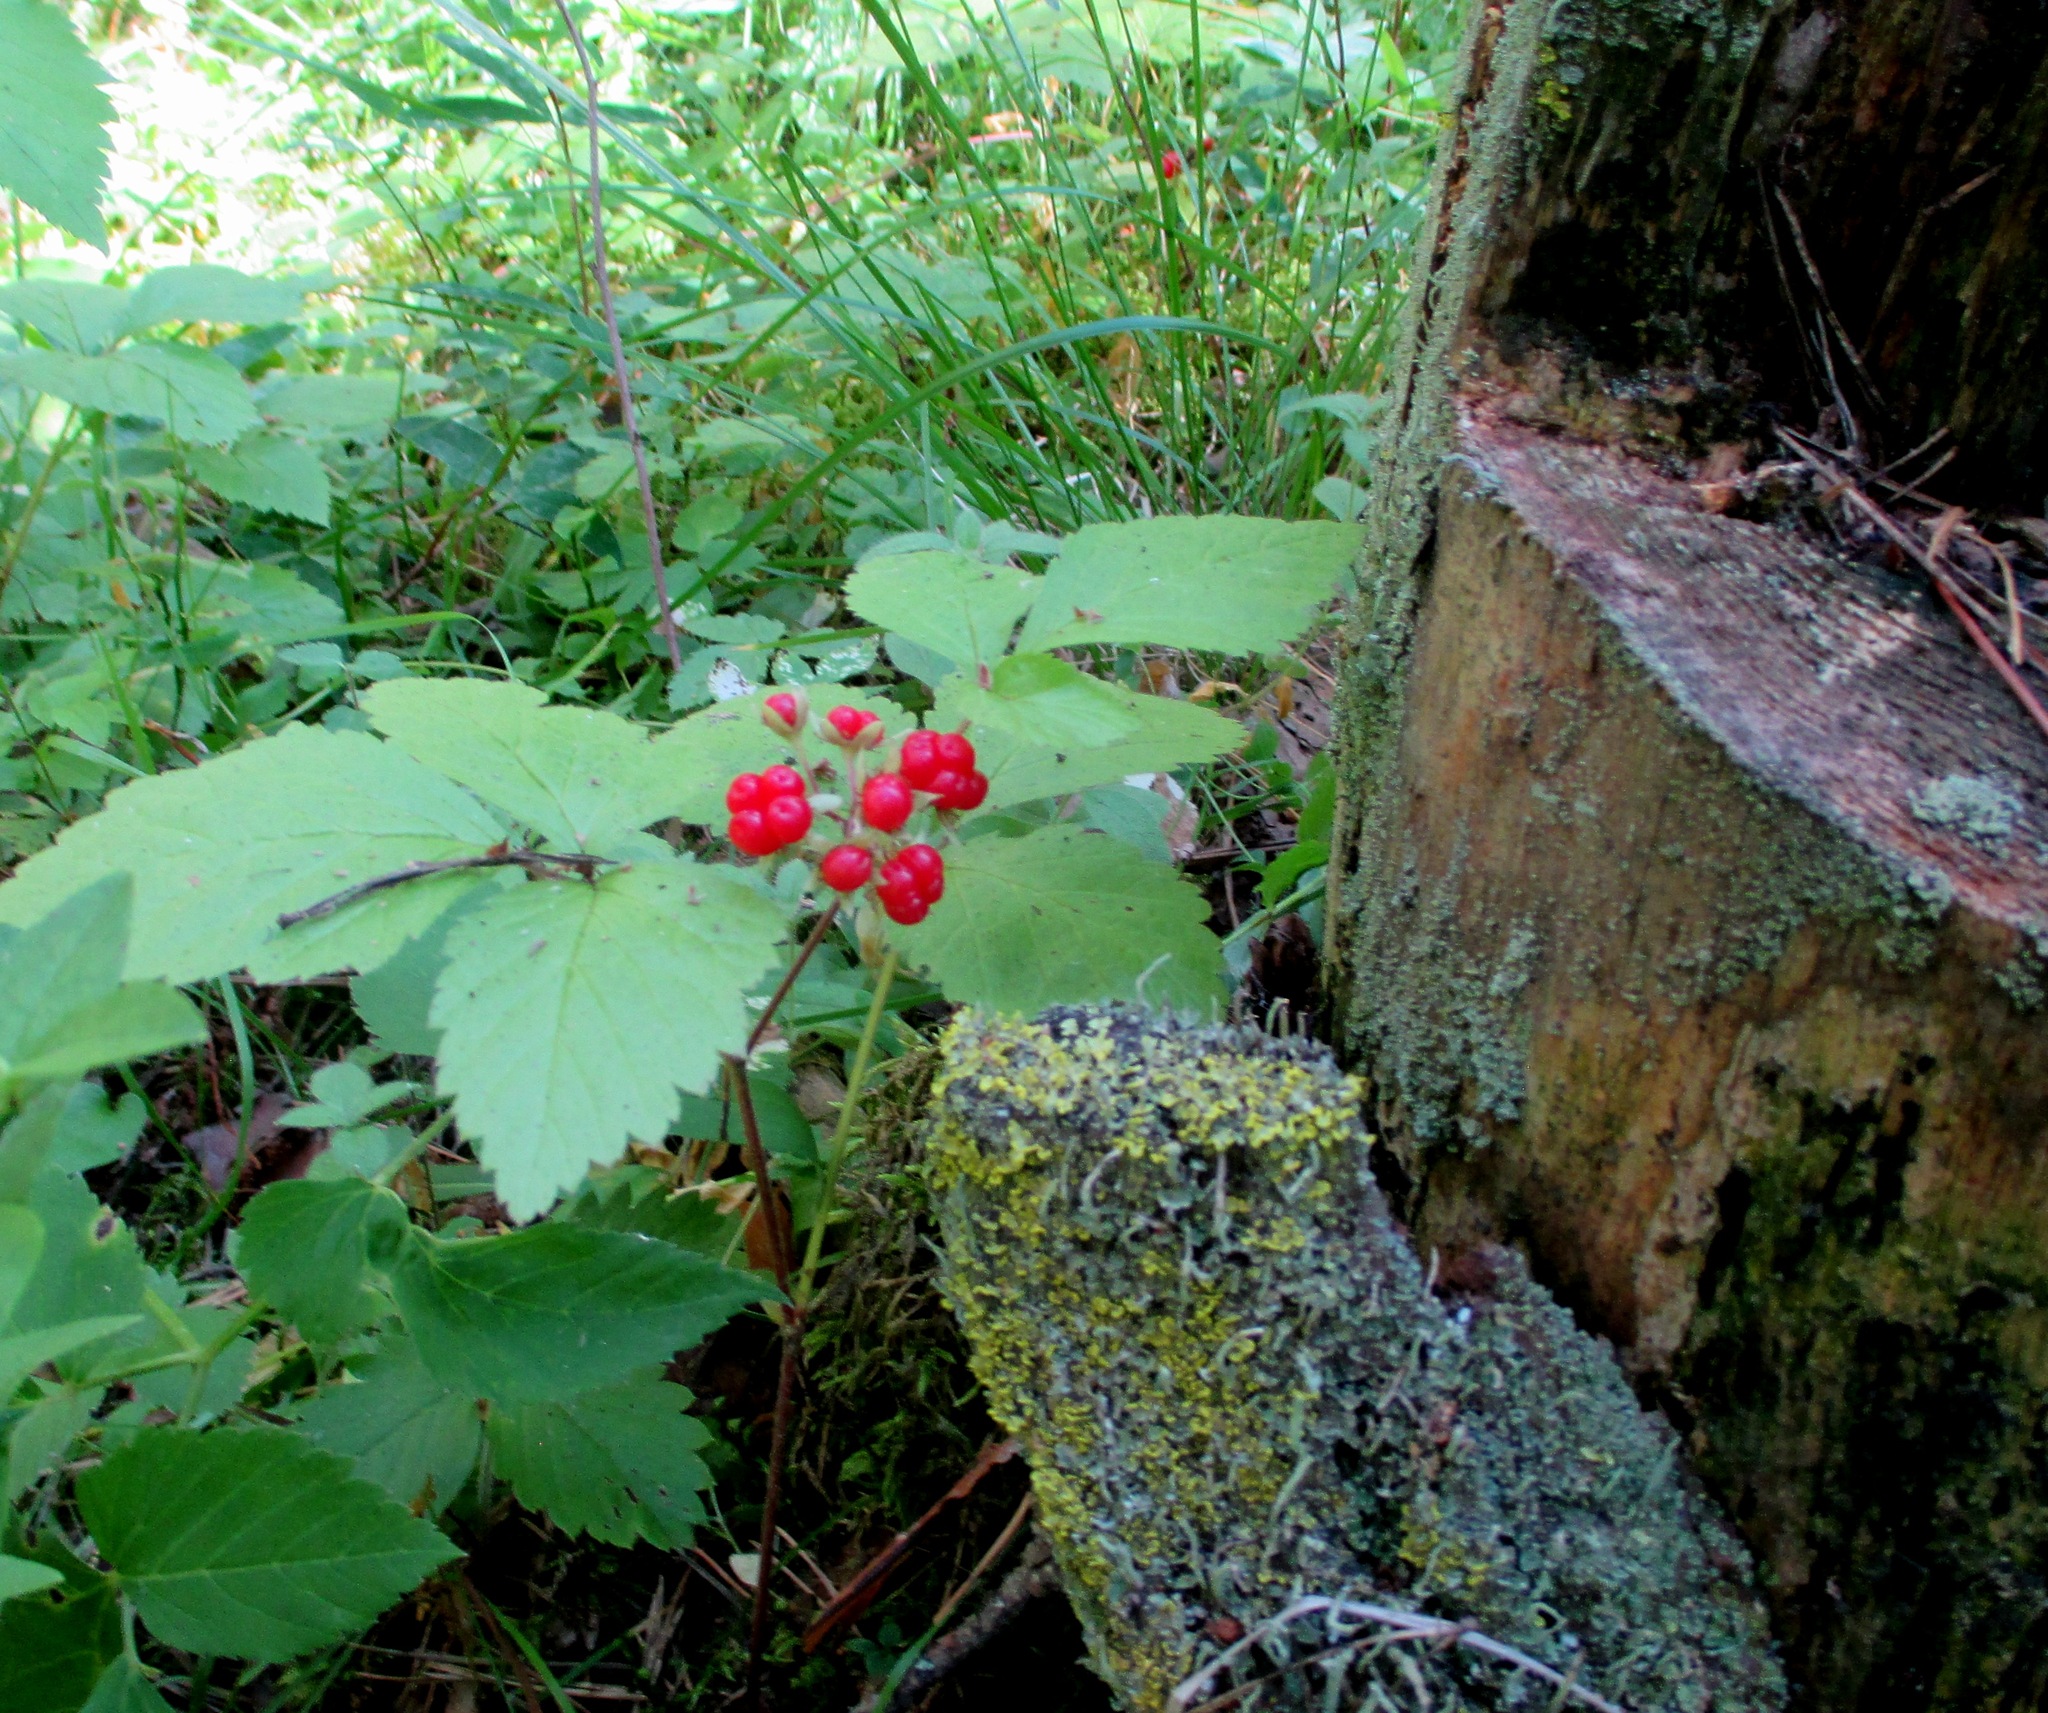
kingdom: Plantae
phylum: Tracheophyta
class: Magnoliopsida
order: Rosales
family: Rosaceae
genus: Rubus
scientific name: Rubus saxatilis
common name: Stone bramble
